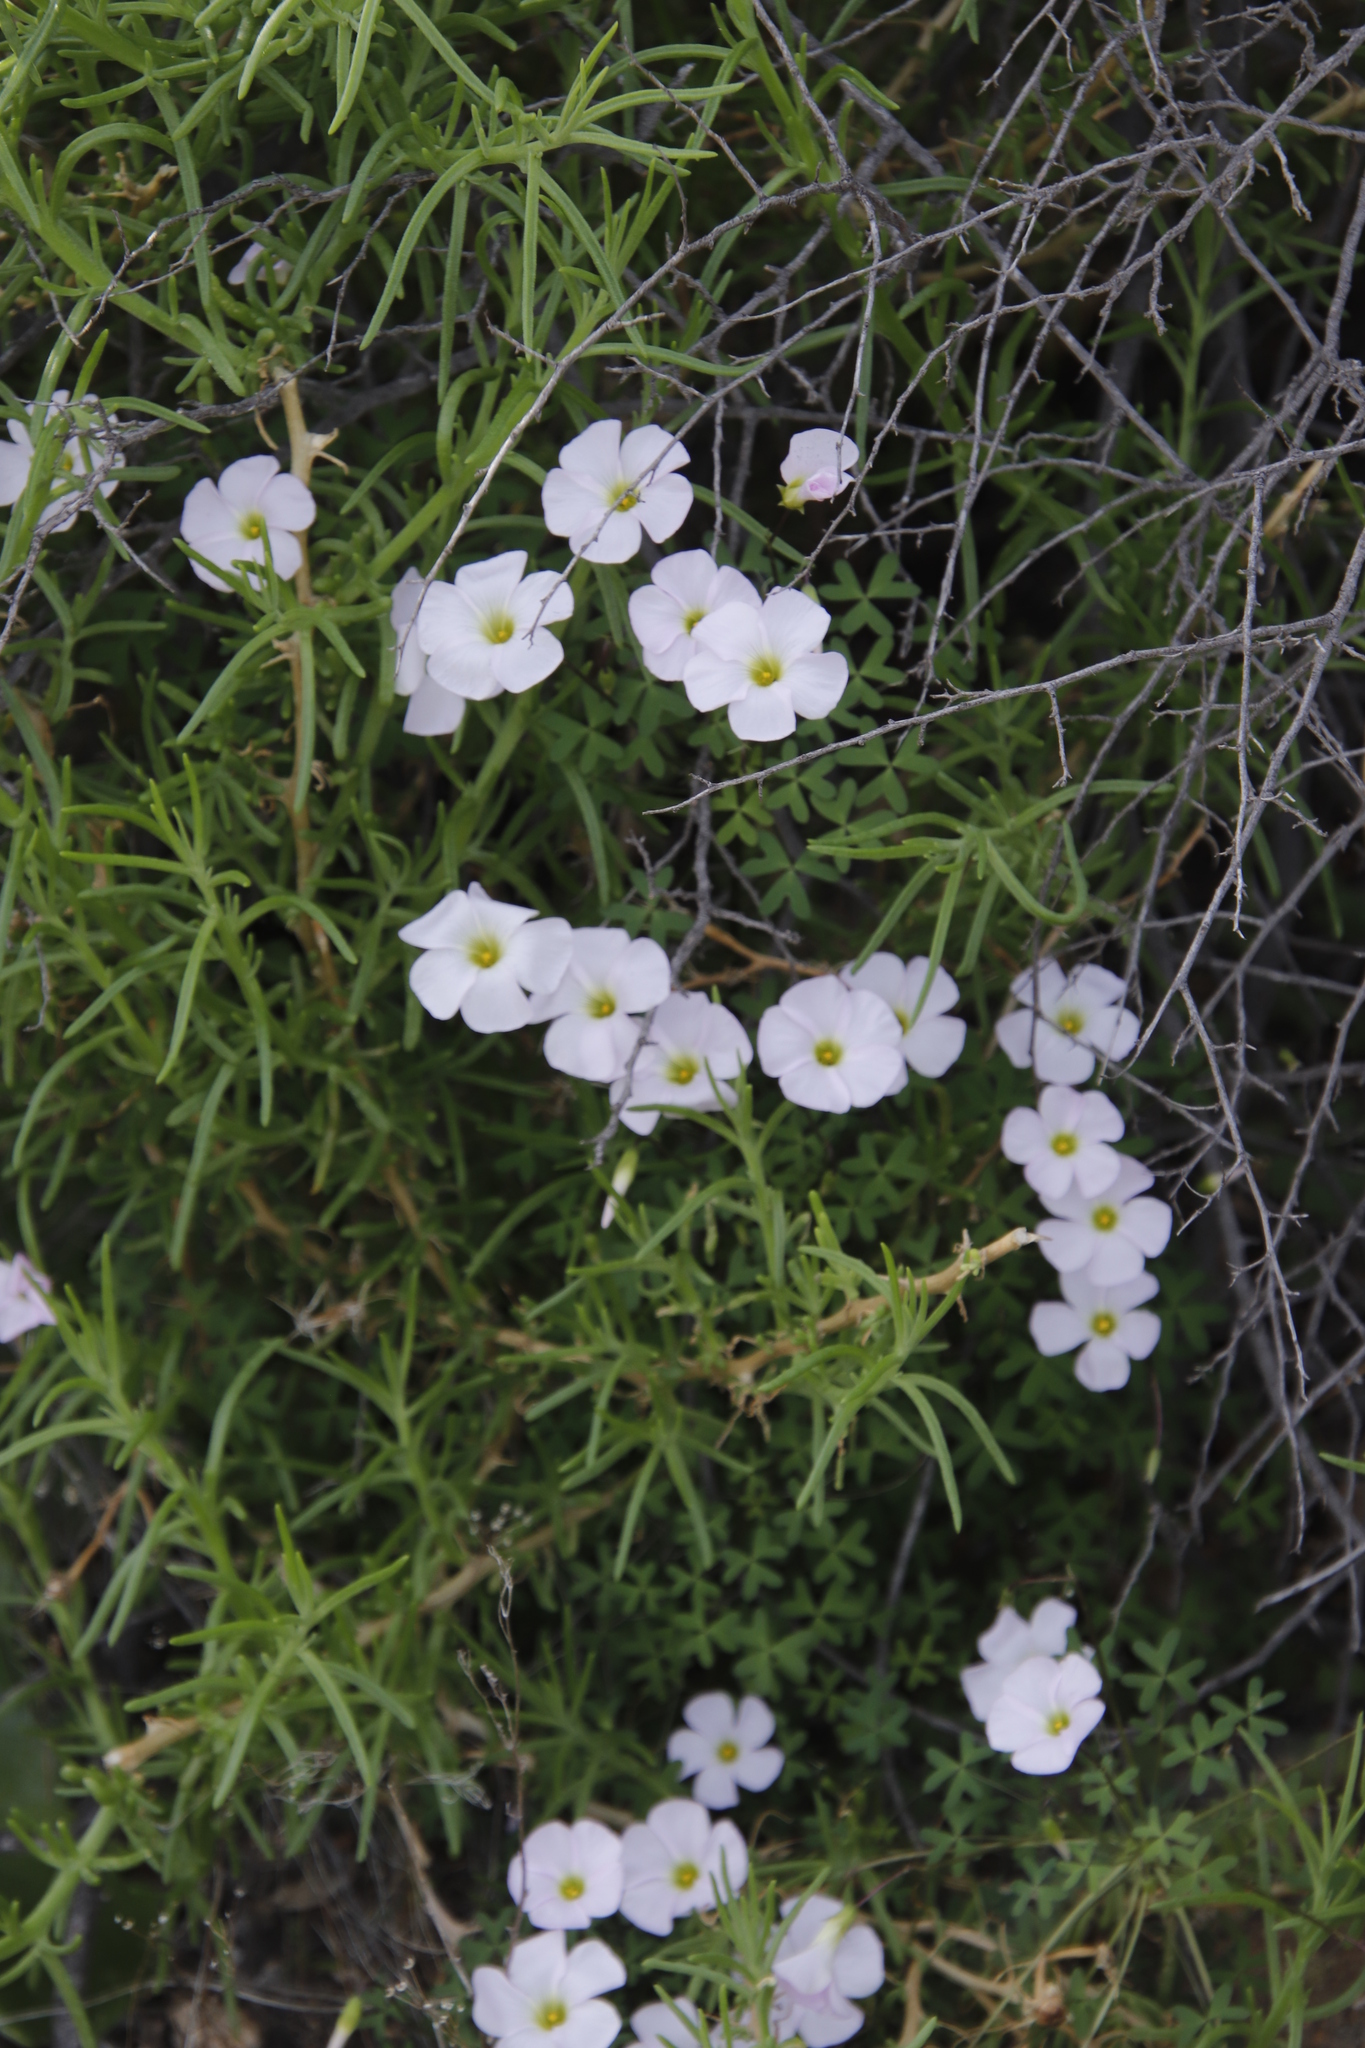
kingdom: Plantae
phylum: Tracheophyta
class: Magnoliopsida
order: Oxalidales
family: Oxalidaceae
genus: Oxalis
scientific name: Oxalis comosa
